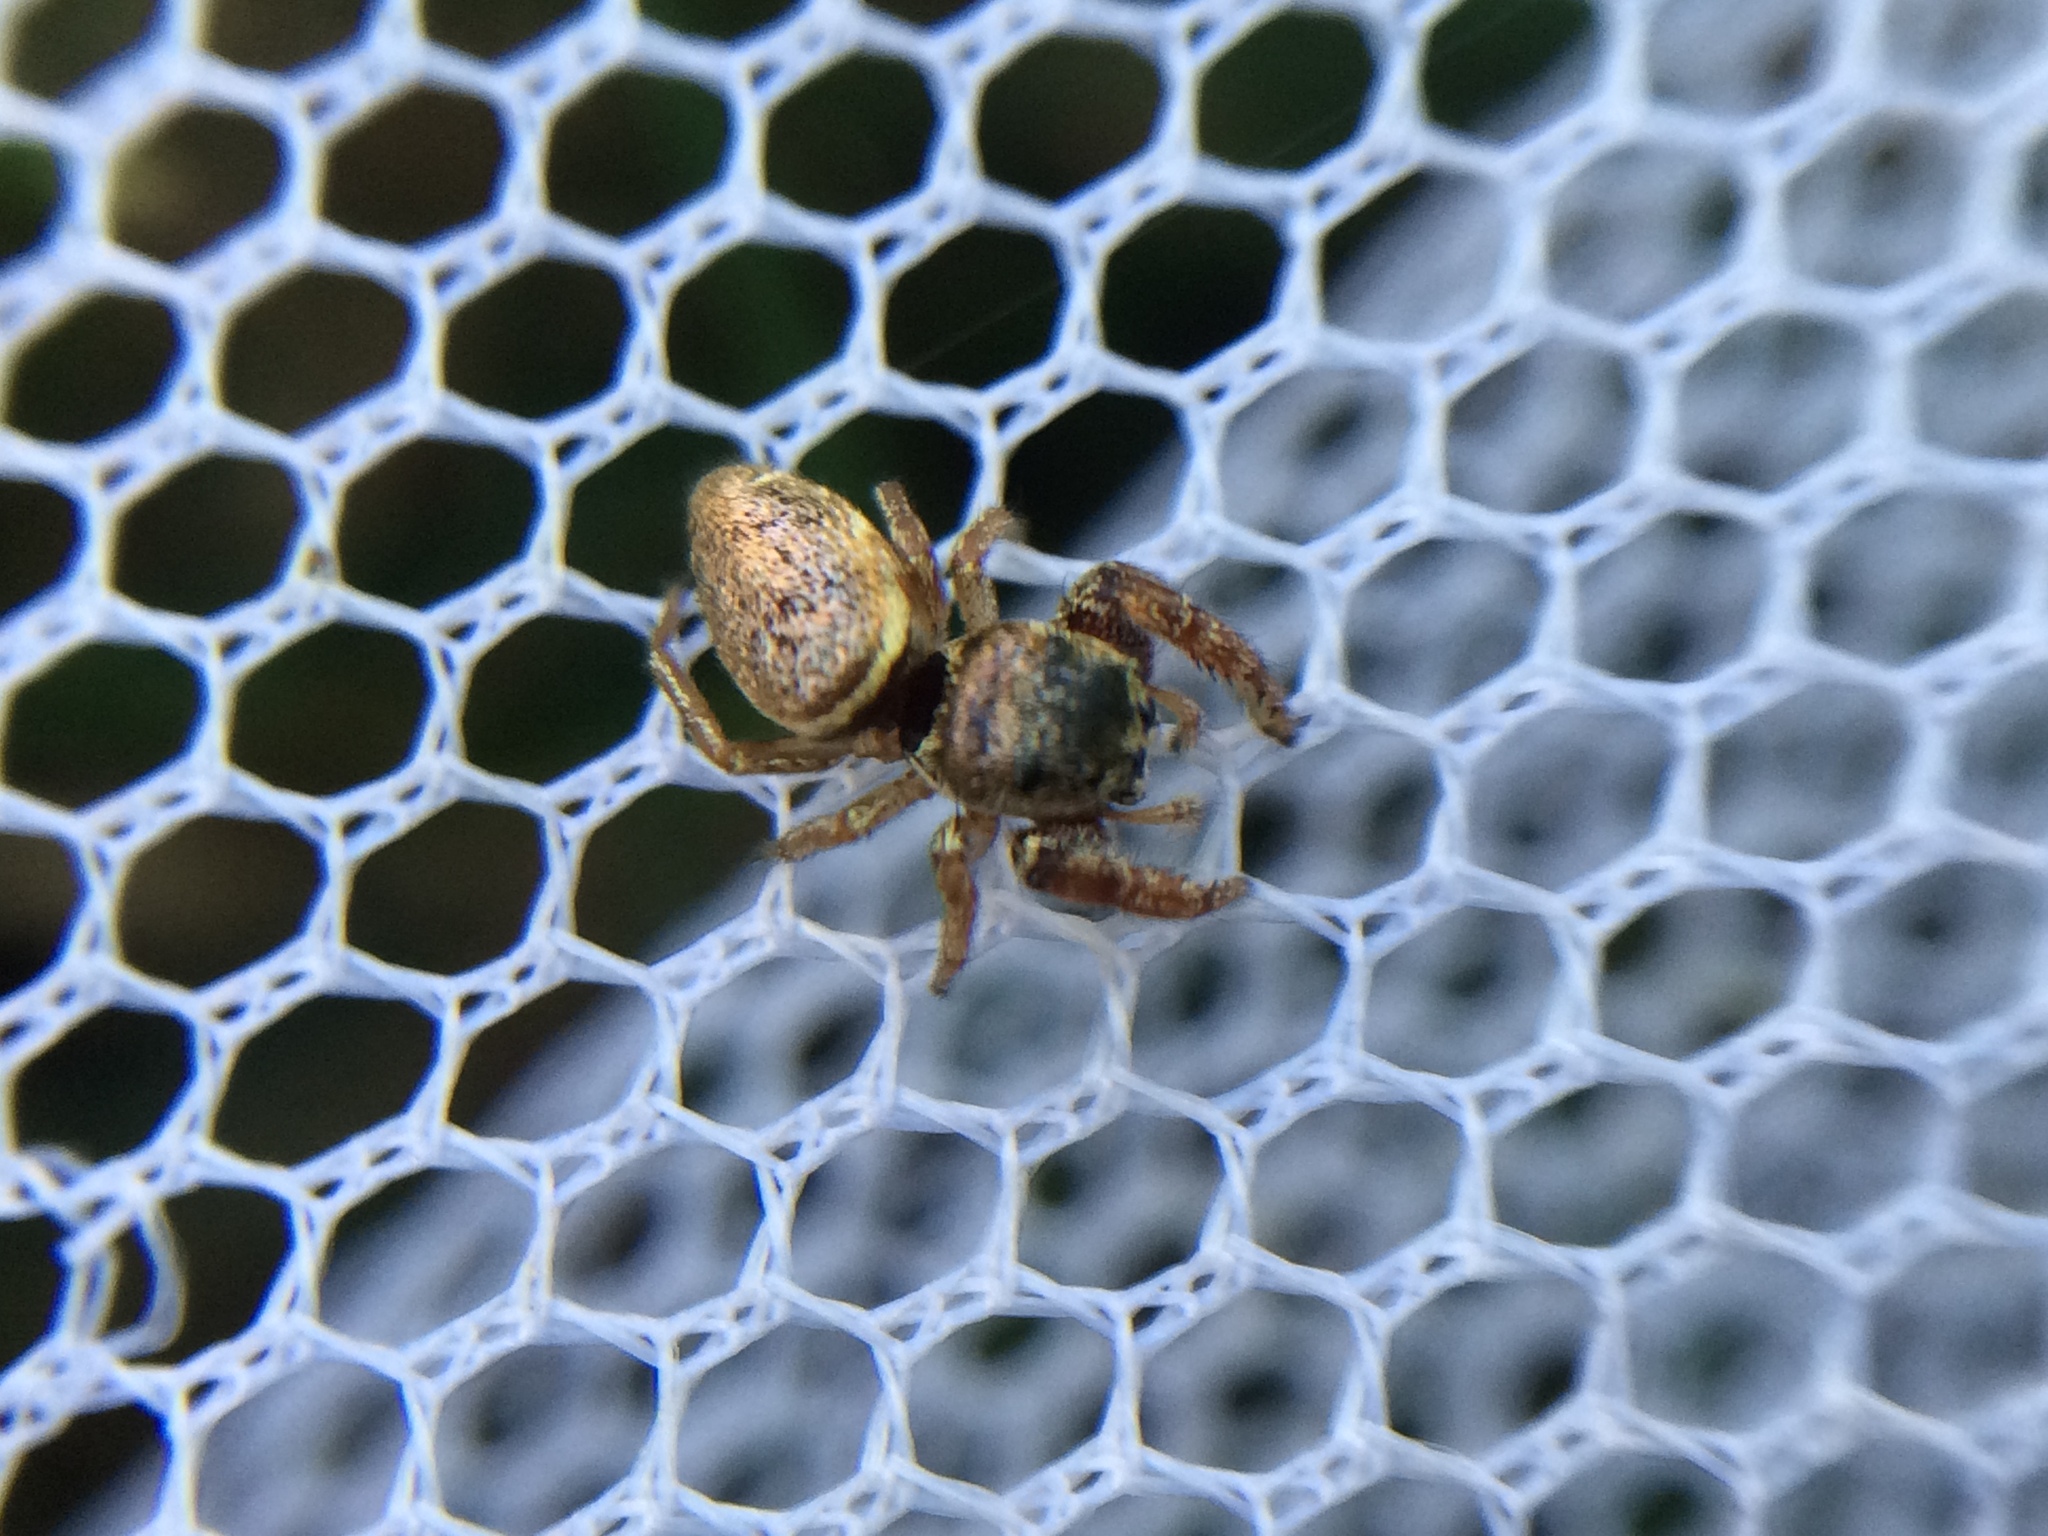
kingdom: Animalia
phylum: Arthropoda
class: Arachnida
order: Araneae
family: Salticidae
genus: Sassacus
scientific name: Sassacus vitis
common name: Jumping spiders
